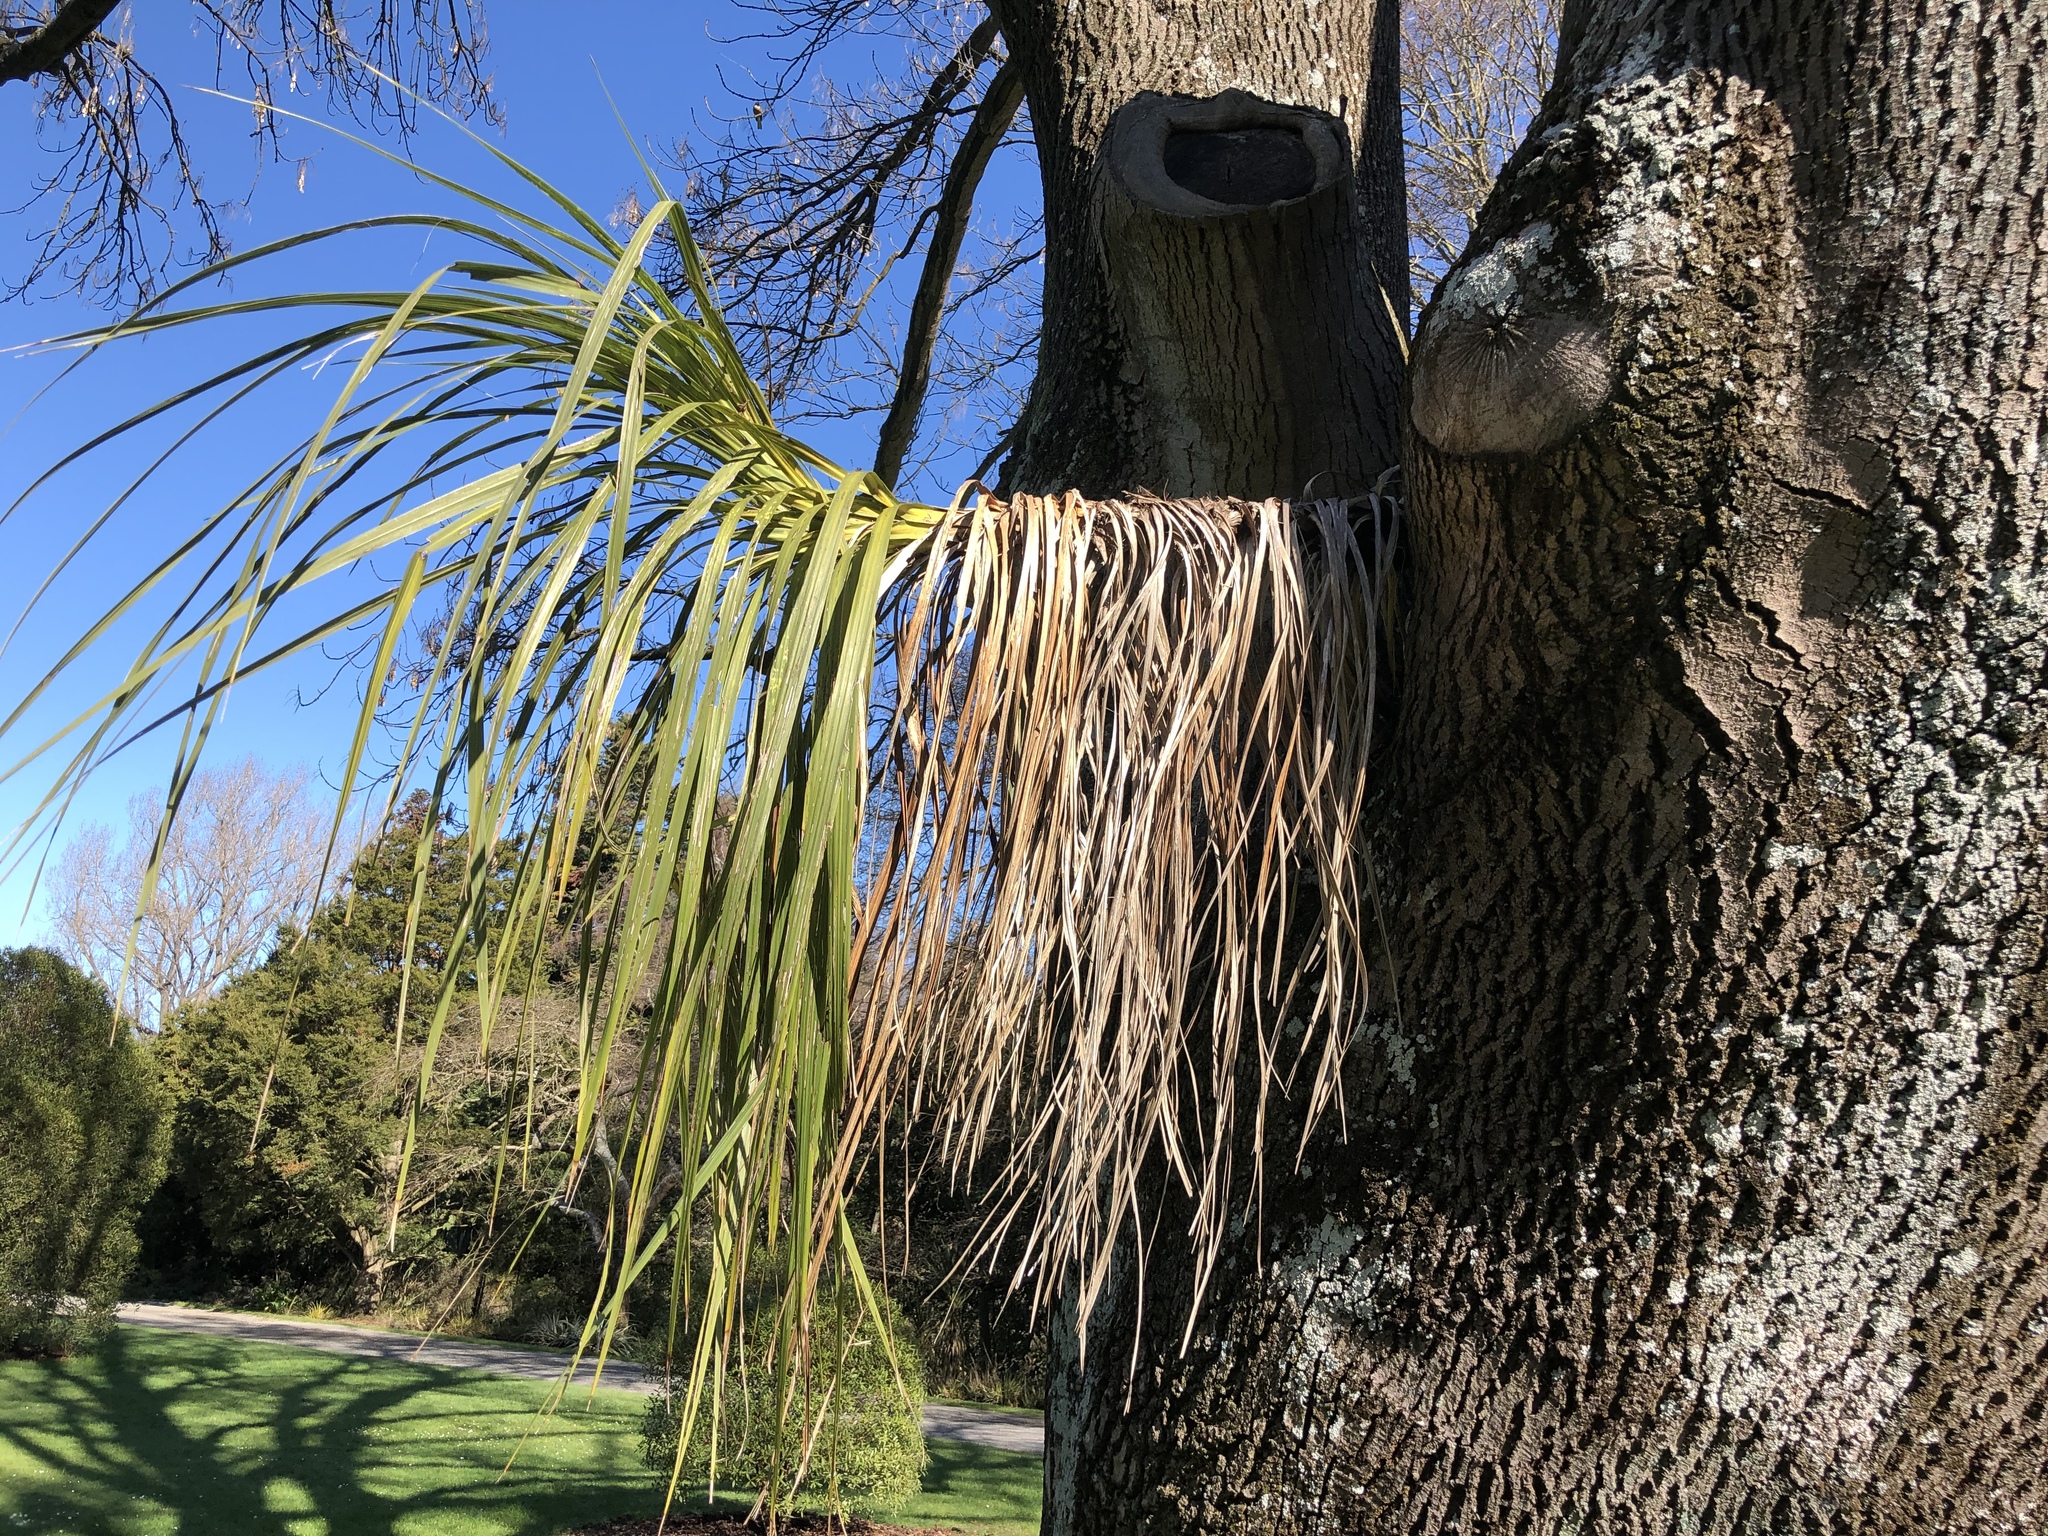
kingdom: Plantae
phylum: Tracheophyta
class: Liliopsida
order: Asparagales
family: Asparagaceae
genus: Cordyline
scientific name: Cordyline australis
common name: Cabbage-palm
